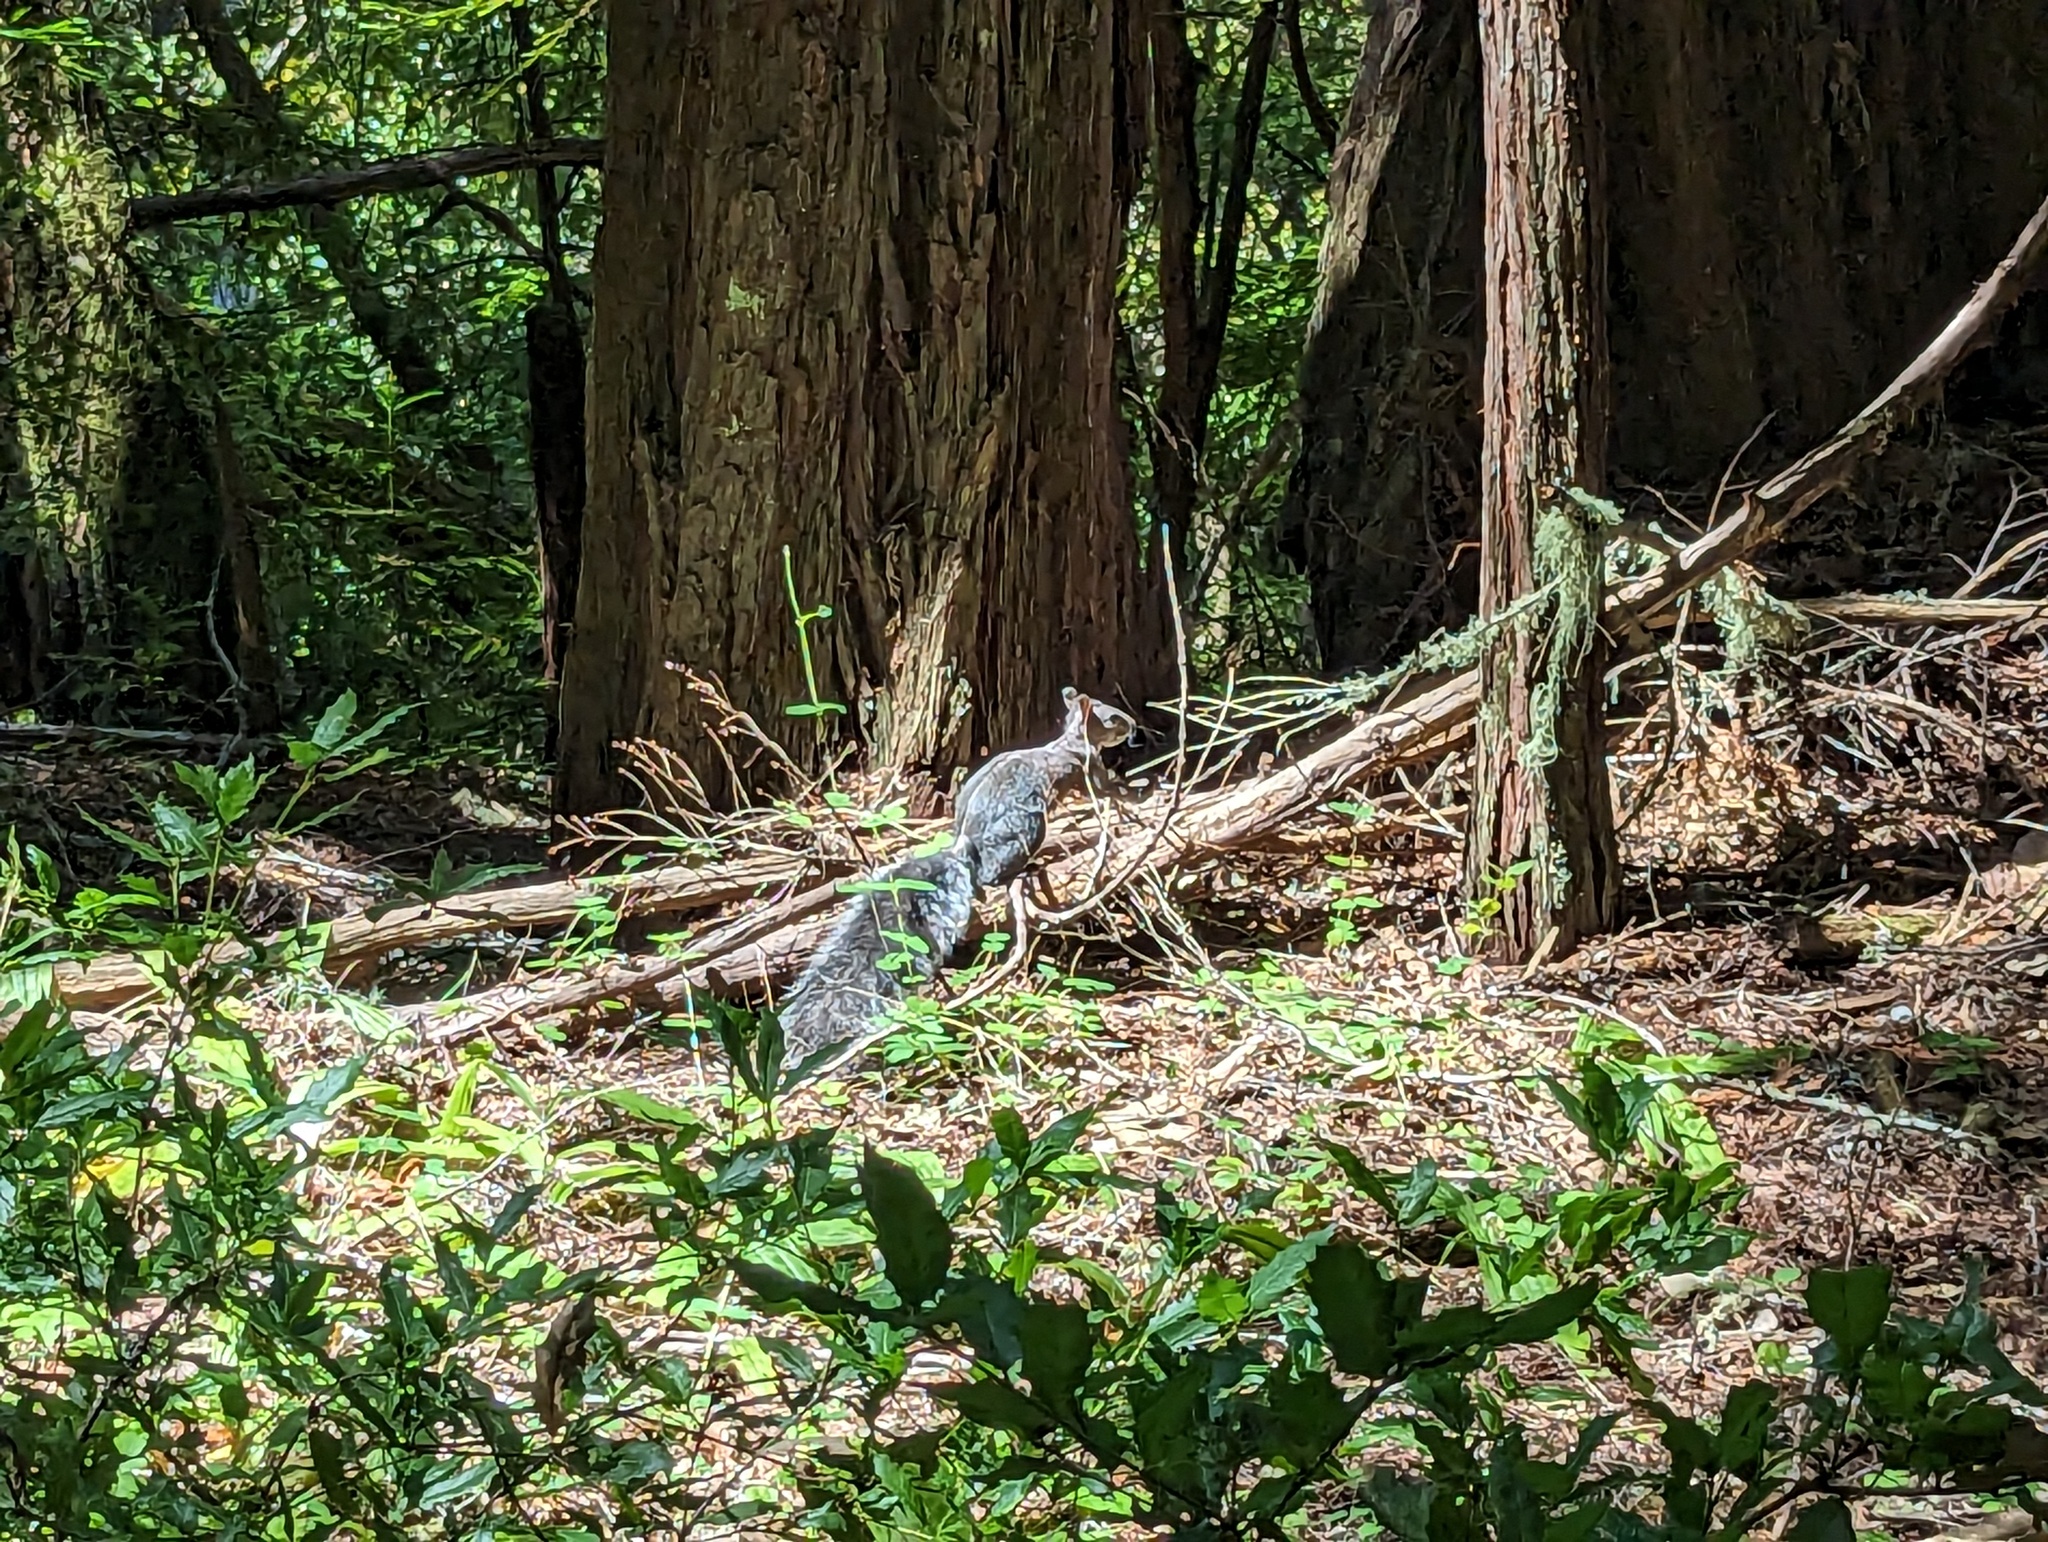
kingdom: Animalia
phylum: Chordata
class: Mammalia
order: Rodentia
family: Sciuridae
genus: Sciurus
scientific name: Sciurus griseus
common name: Western gray squirrel
